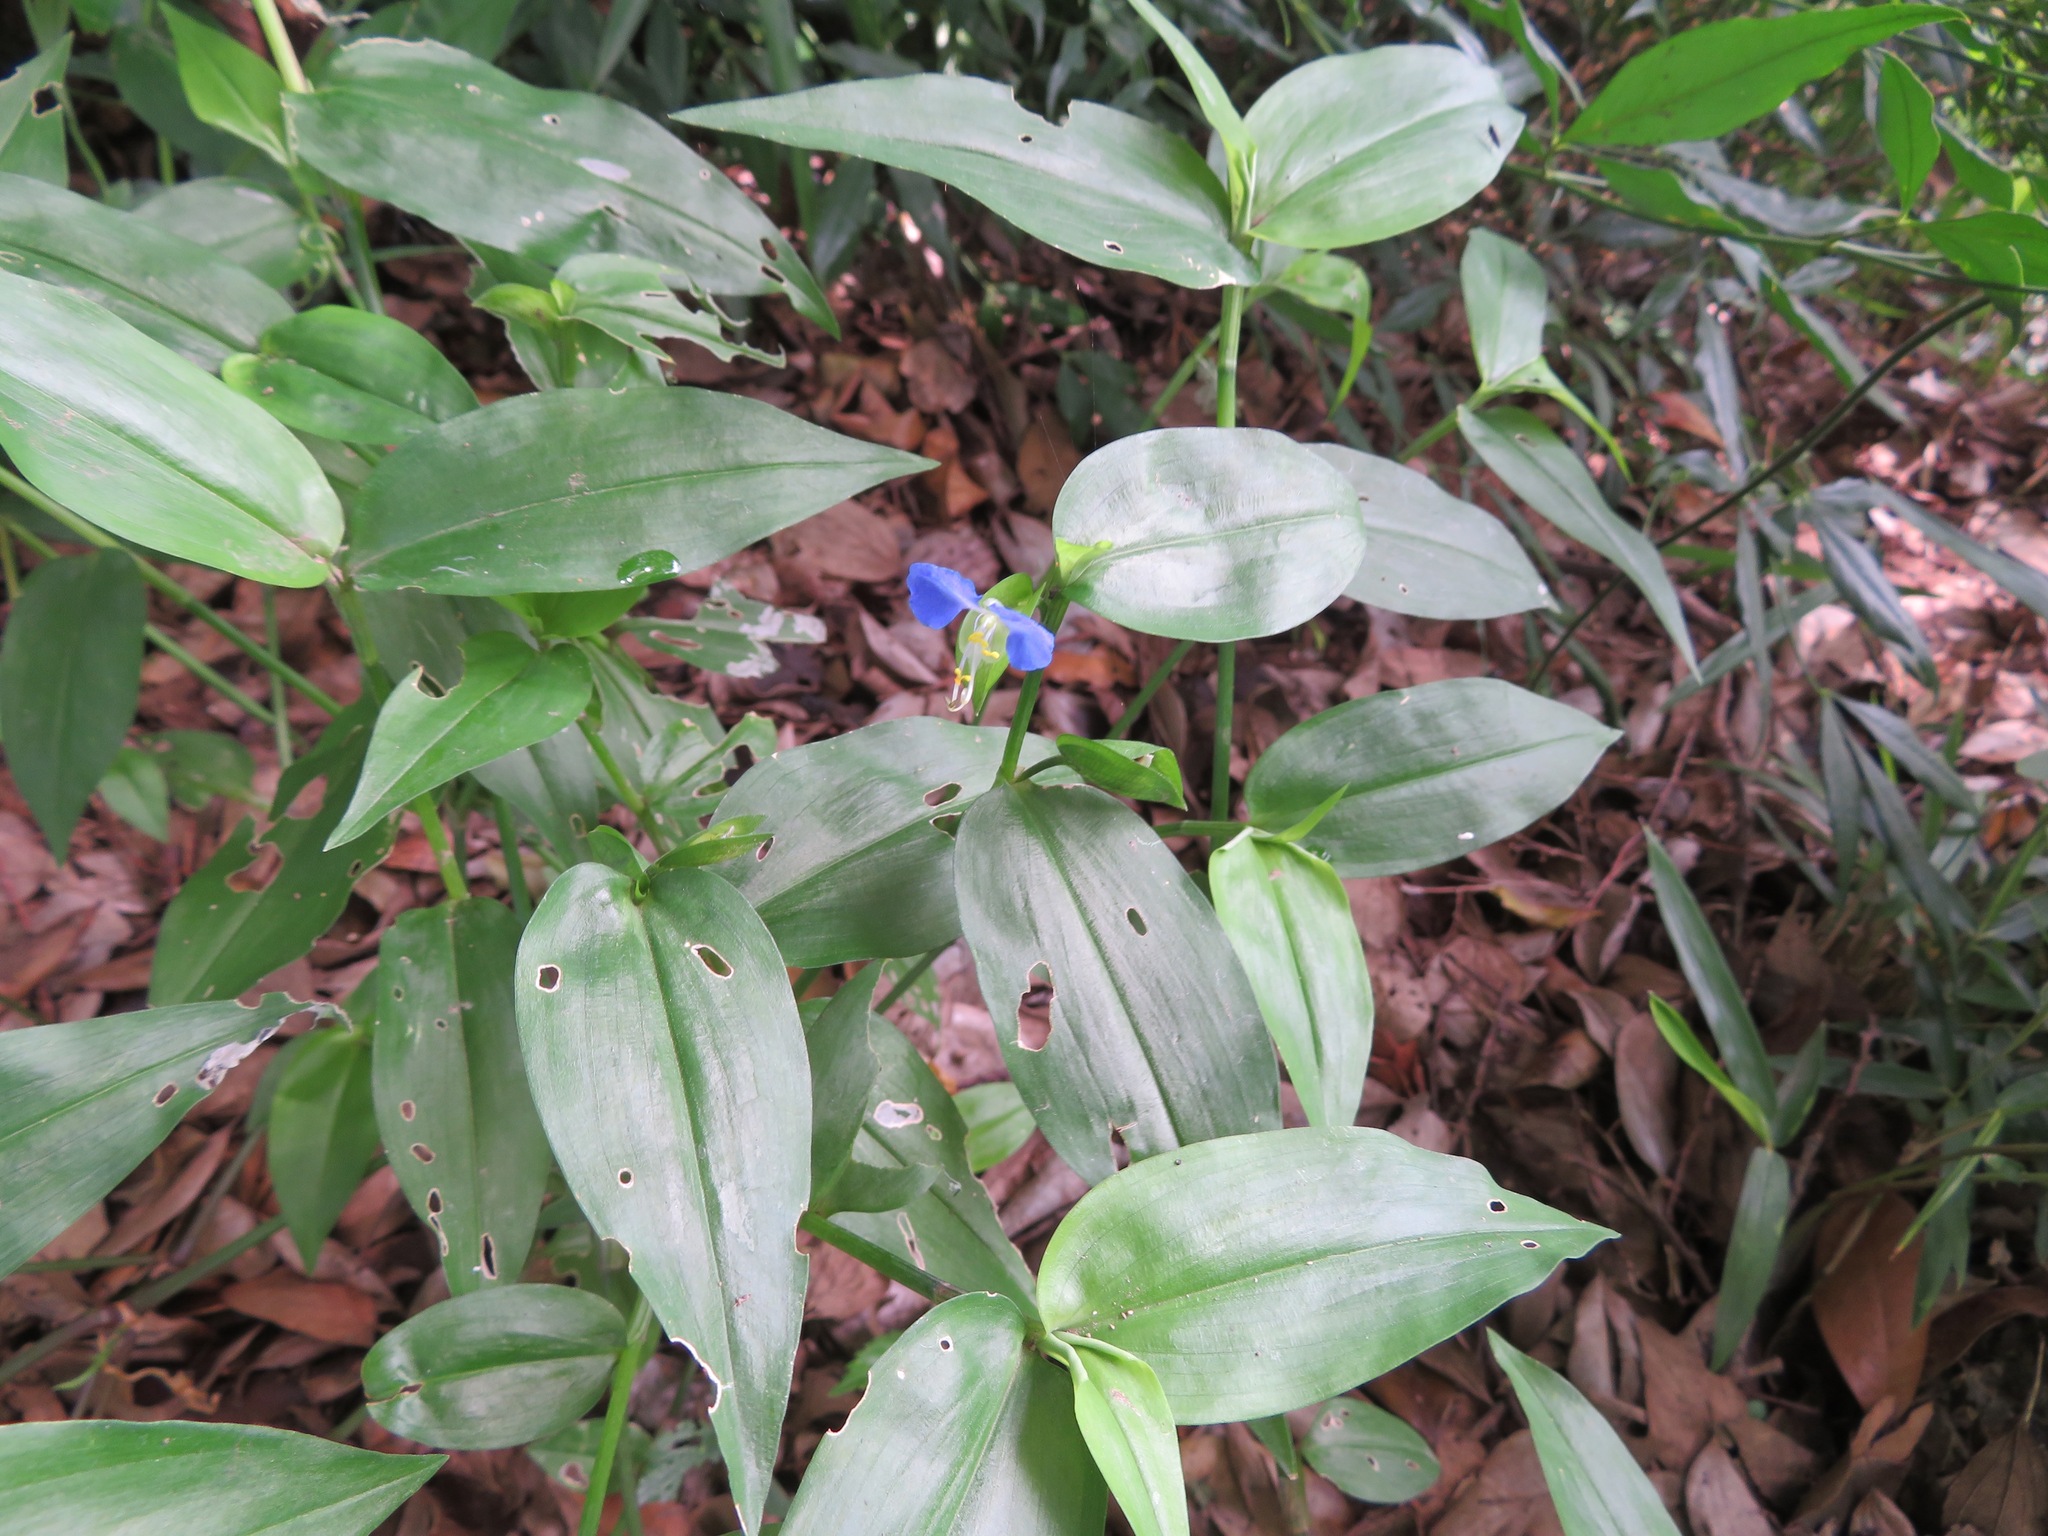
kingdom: Plantae
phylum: Tracheophyta
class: Liliopsida
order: Commelinales
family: Commelinaceae
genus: Commelina
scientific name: Commelina communis
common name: Asiatic dayflower
